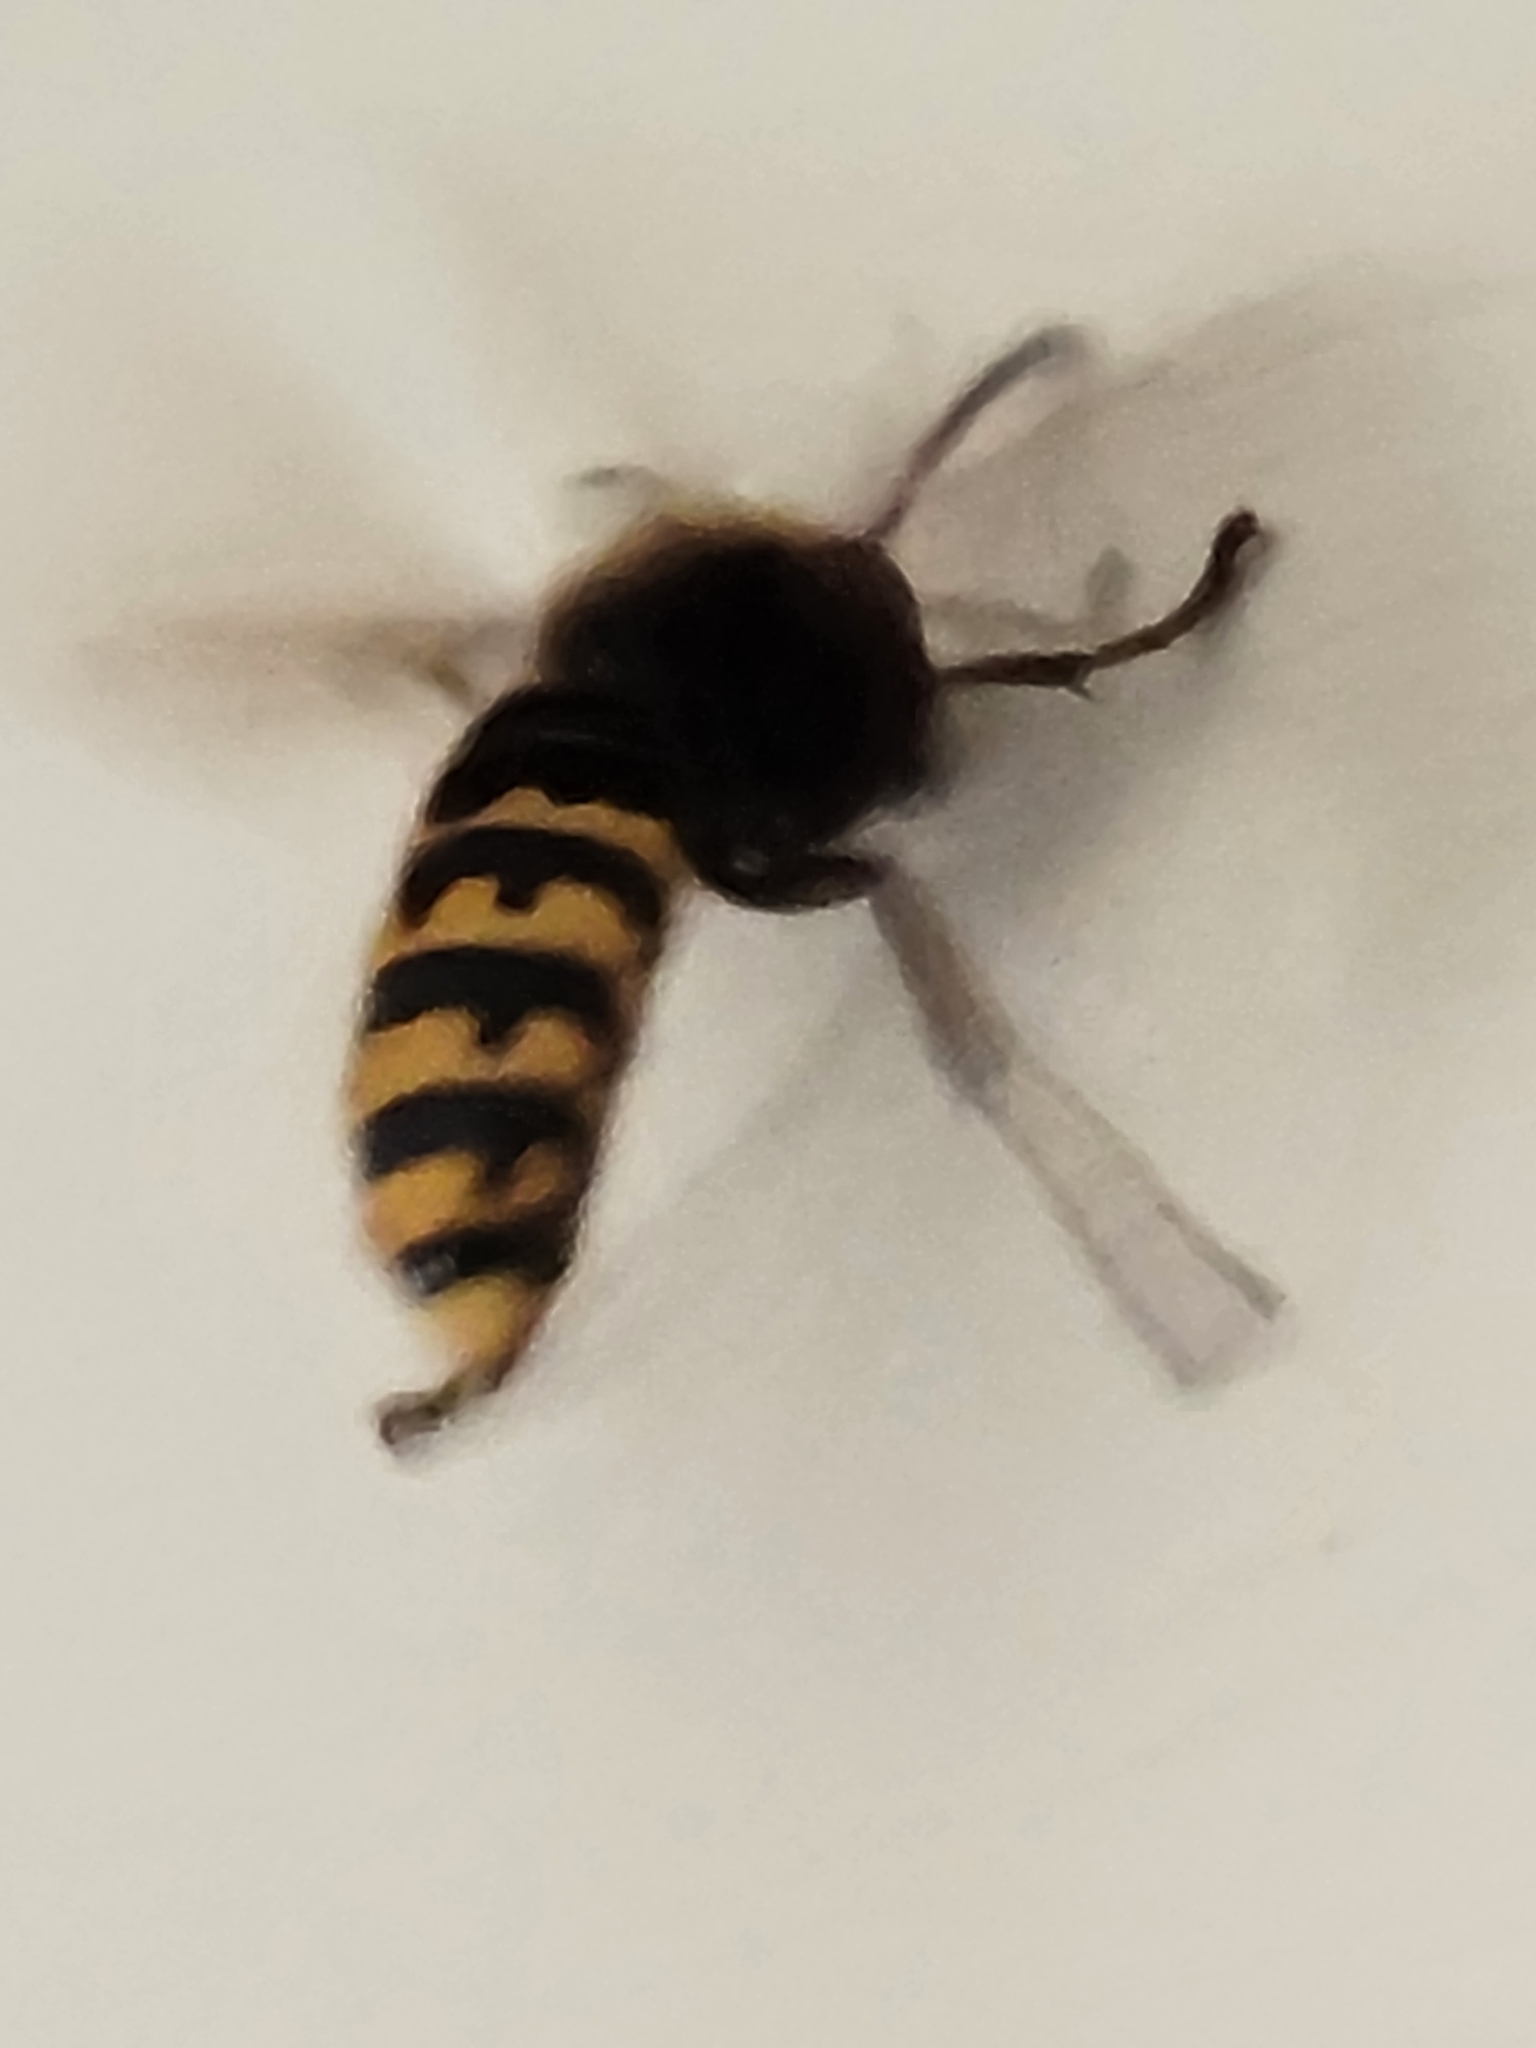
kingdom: Animalia
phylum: Arthropoda
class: Insecta
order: Hymenoptera
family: Vespidae
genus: Vespa
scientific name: Vespa crabro
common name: Hornet
